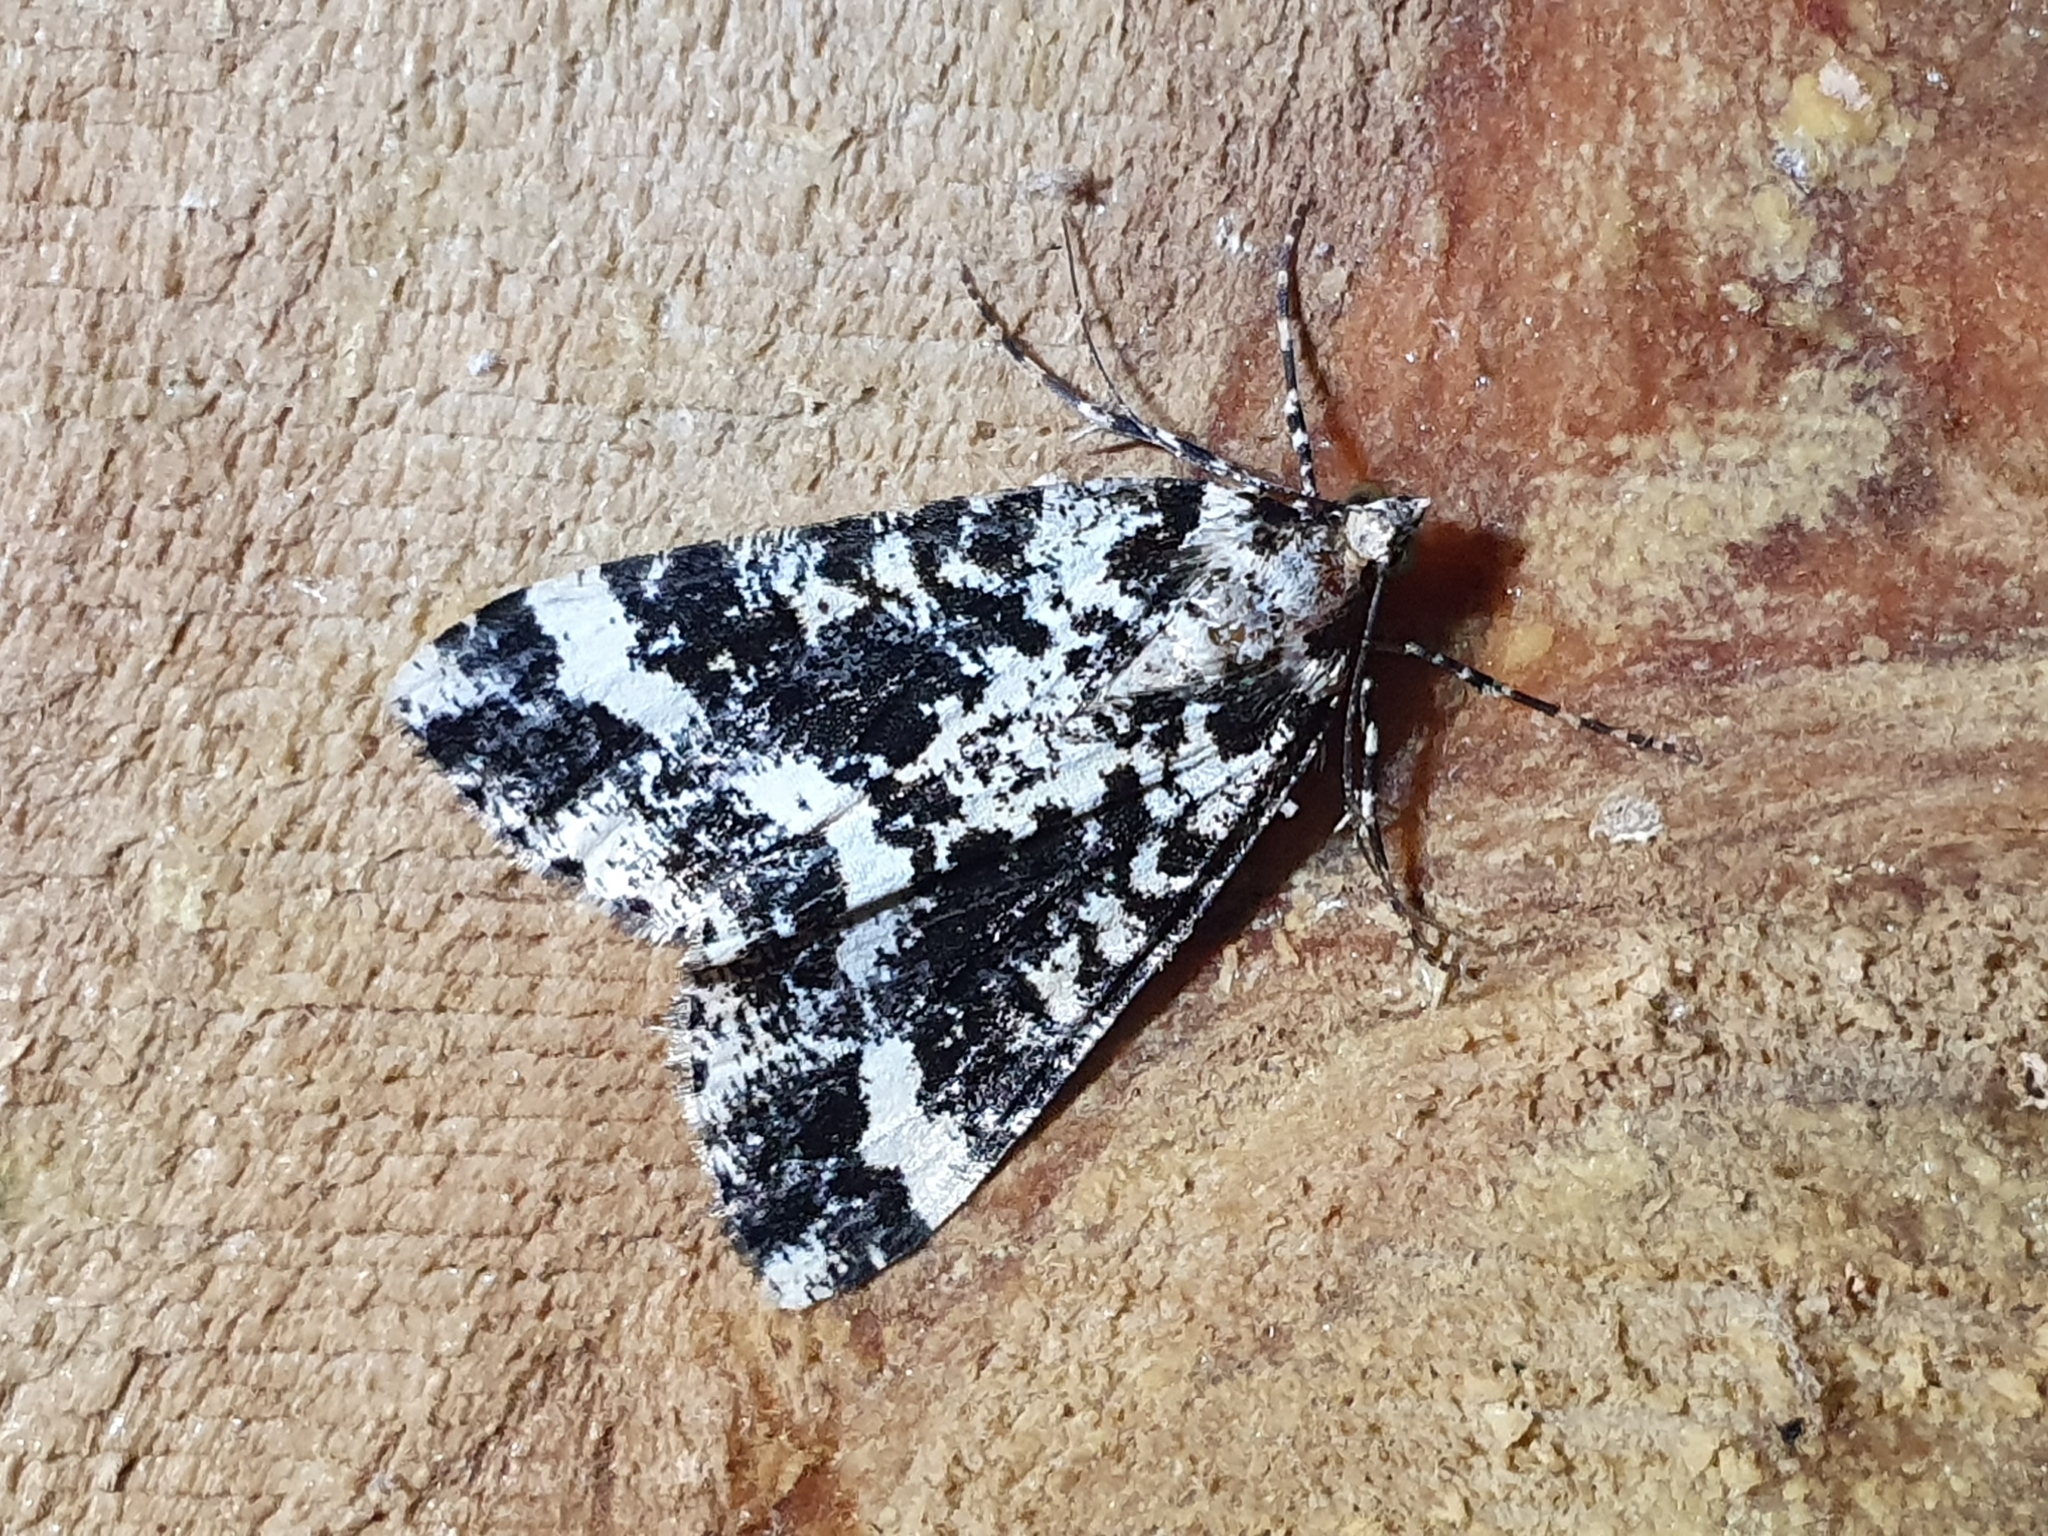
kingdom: Animalia
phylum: Arthropoda
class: Insecta
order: Lepidoptera
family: Geometridae
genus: Pseudocoremia
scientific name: Pseudocoremia leucelaea
